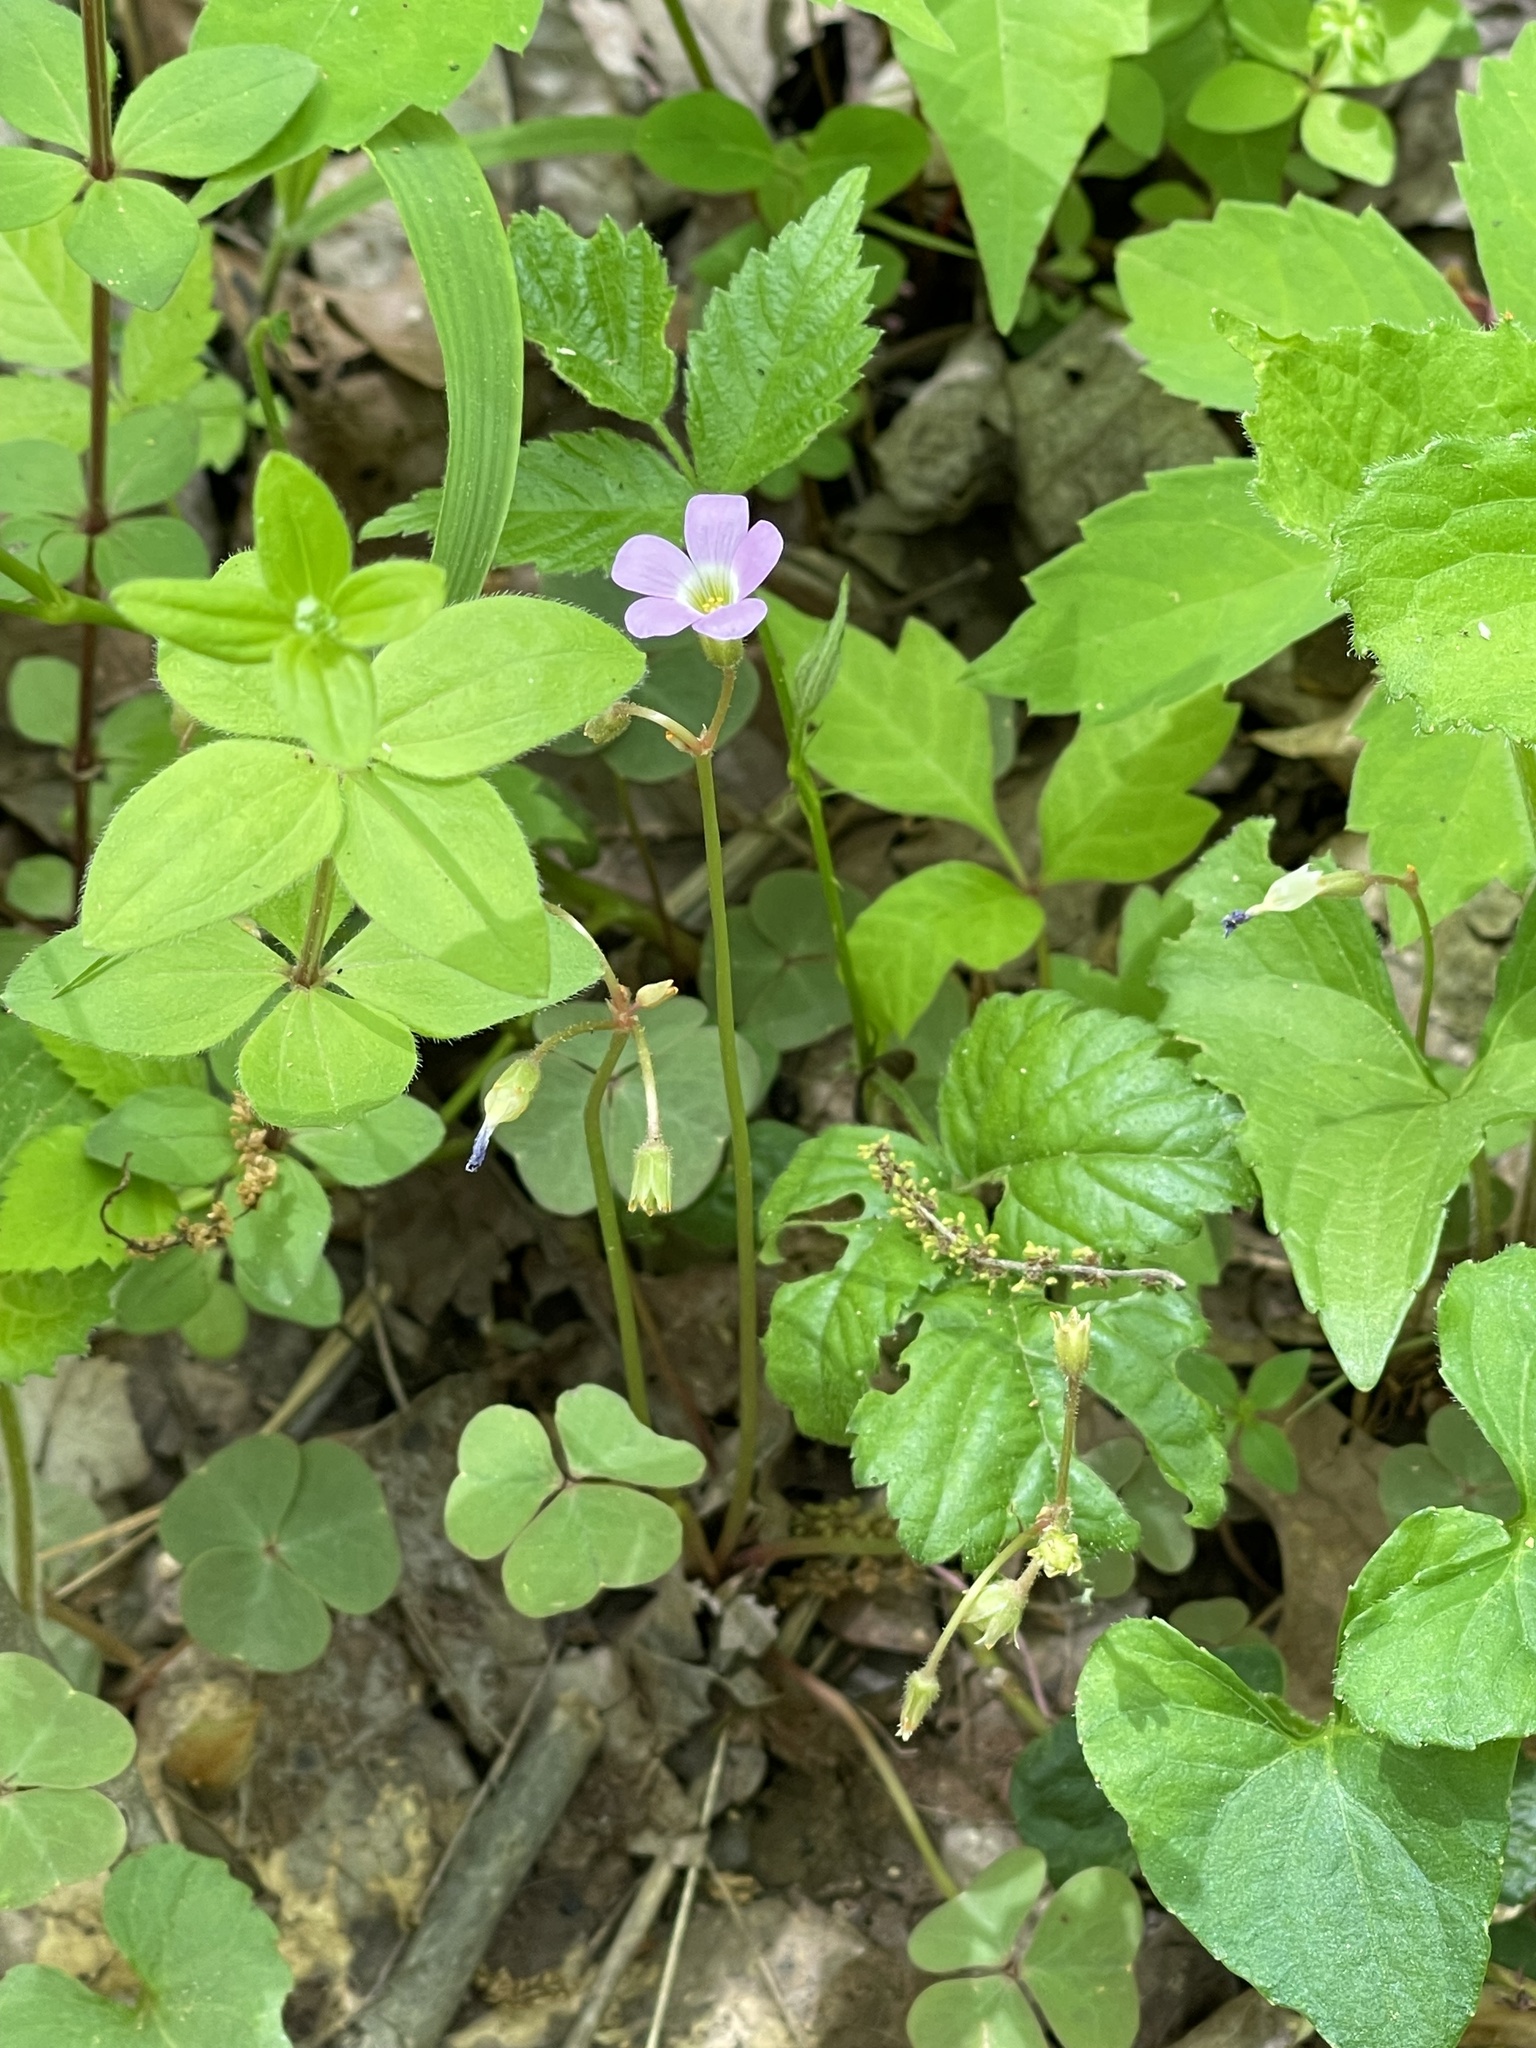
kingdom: Plantae
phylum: Tracheophyta
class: Magnoliopsida
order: Oxalidales
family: Oxalidaceae
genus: Oxalis
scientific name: Oxalis violacea
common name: Violet wood-sorrel
